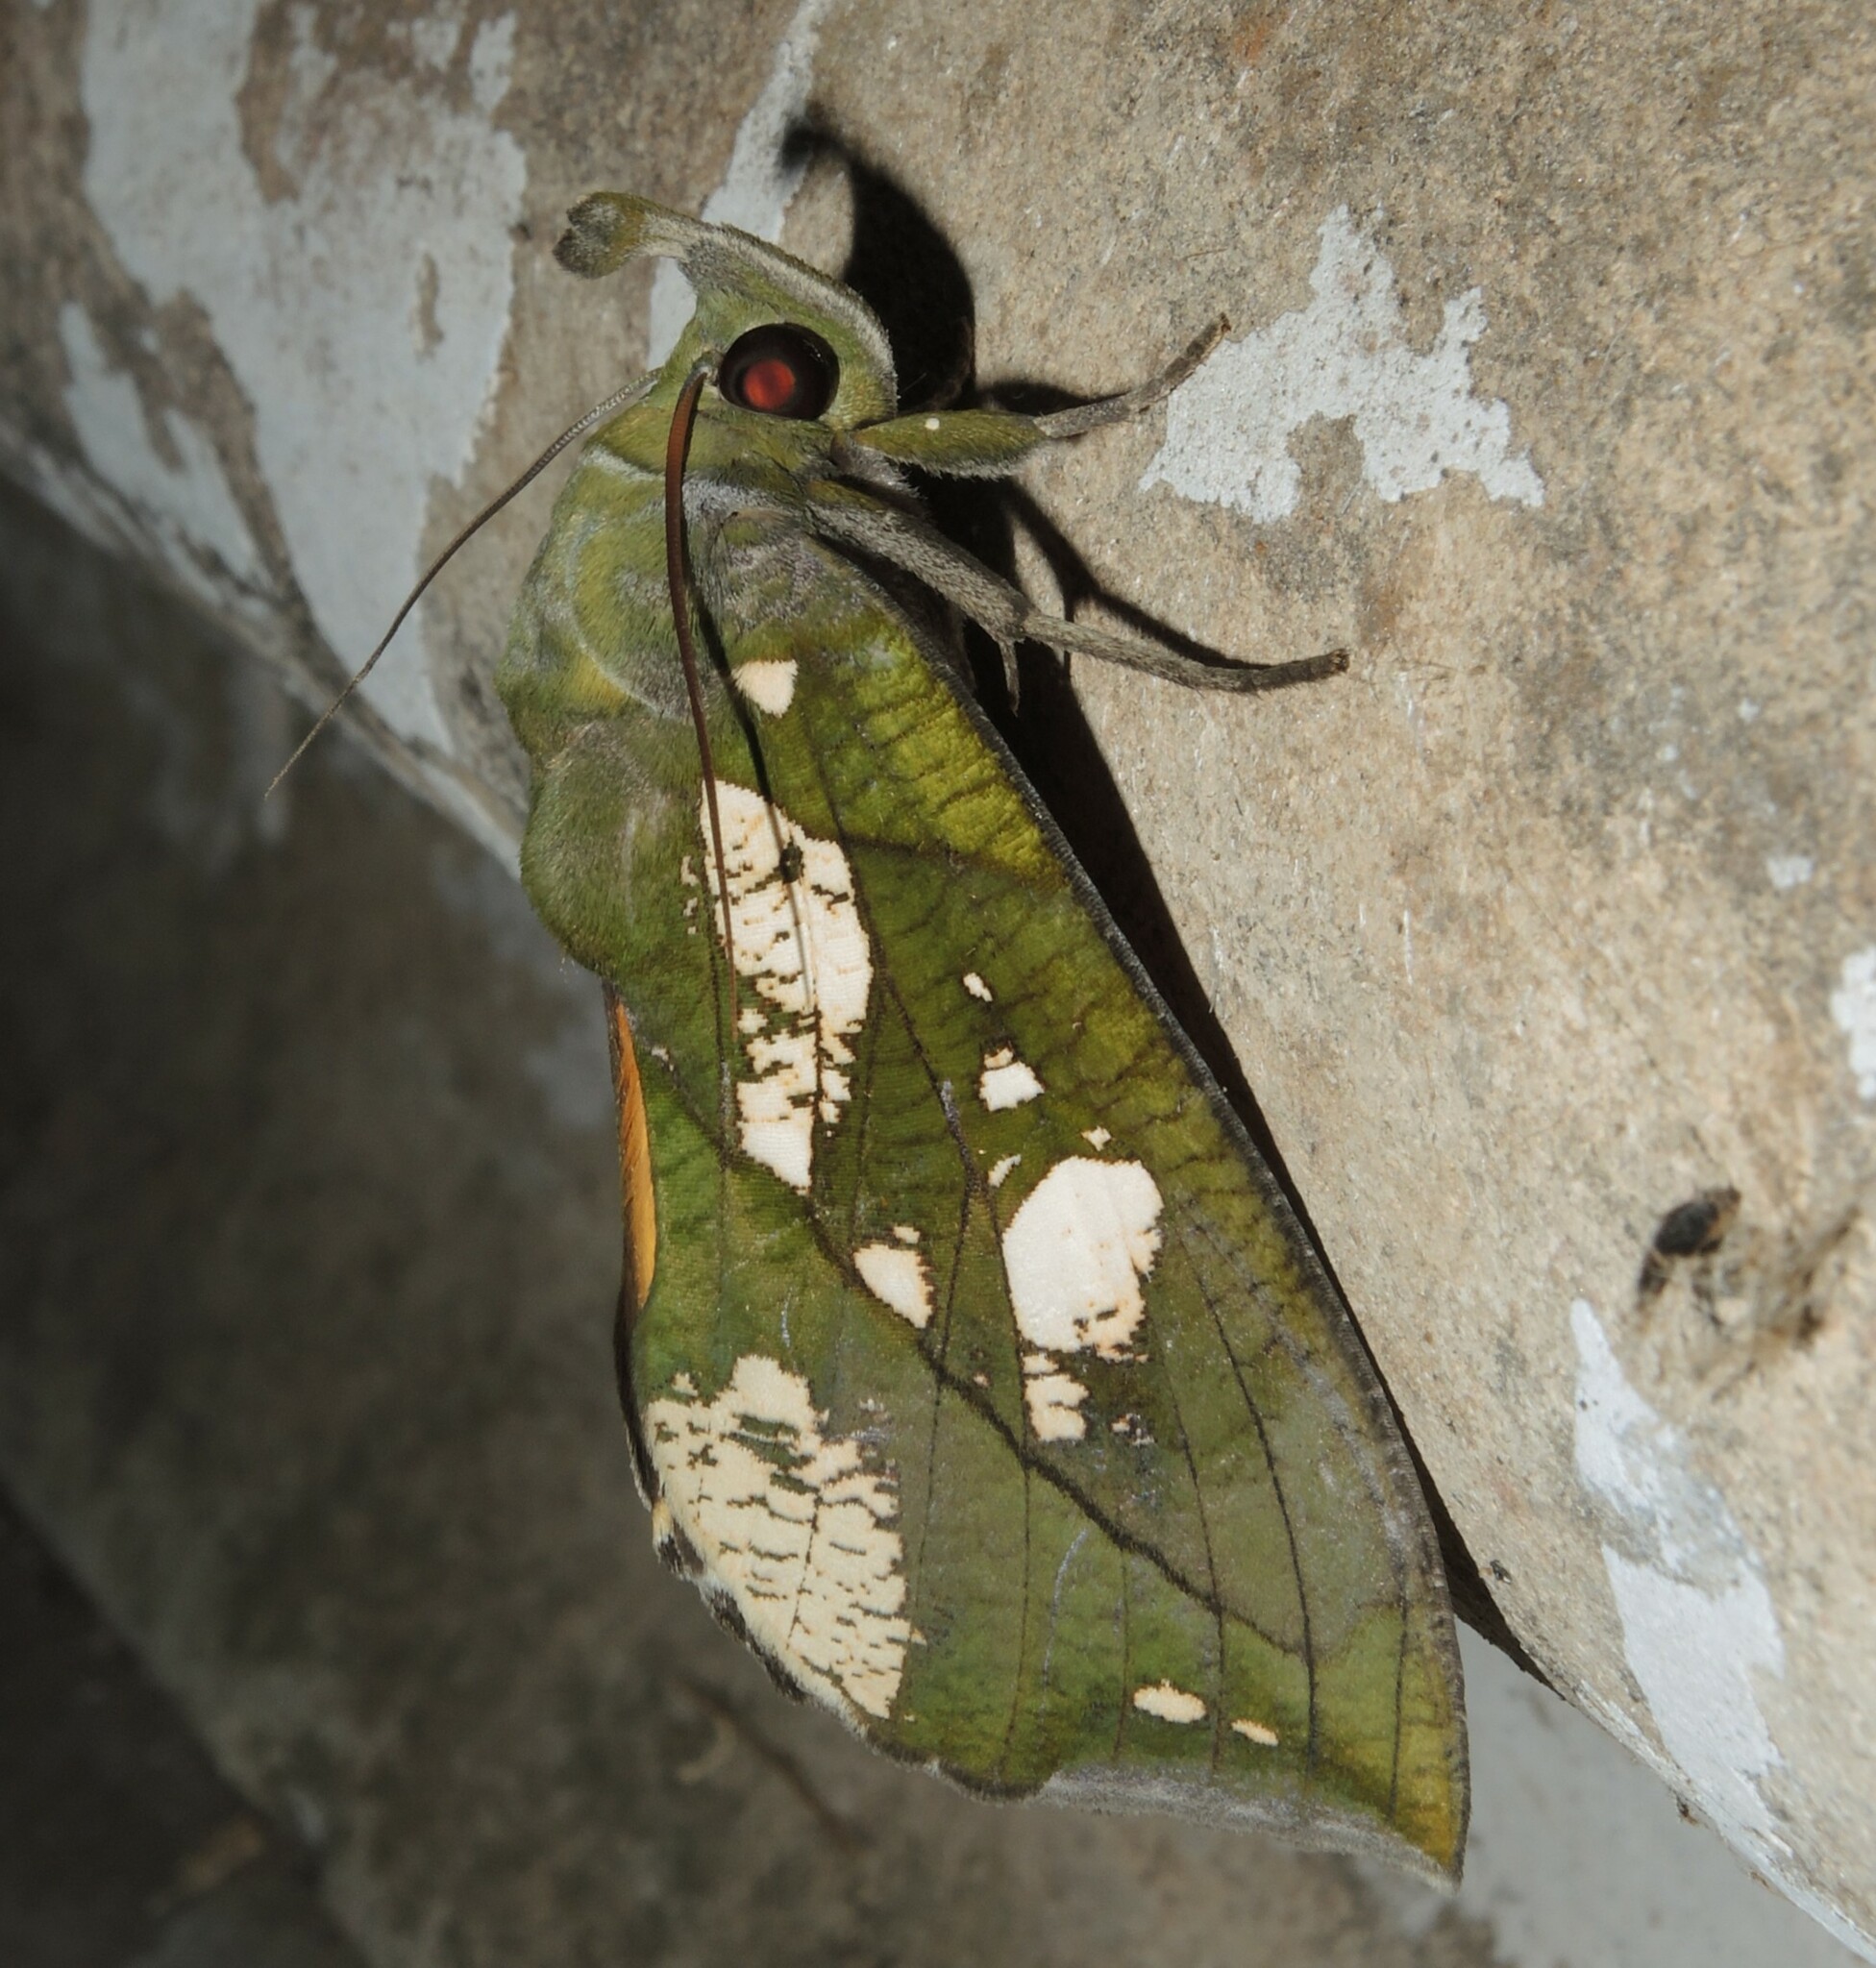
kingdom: Animalia
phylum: Arthropoda
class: Insecta
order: Lepidoptera
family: Erebidae
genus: Eudocima
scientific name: Eudocima hypermnestra
